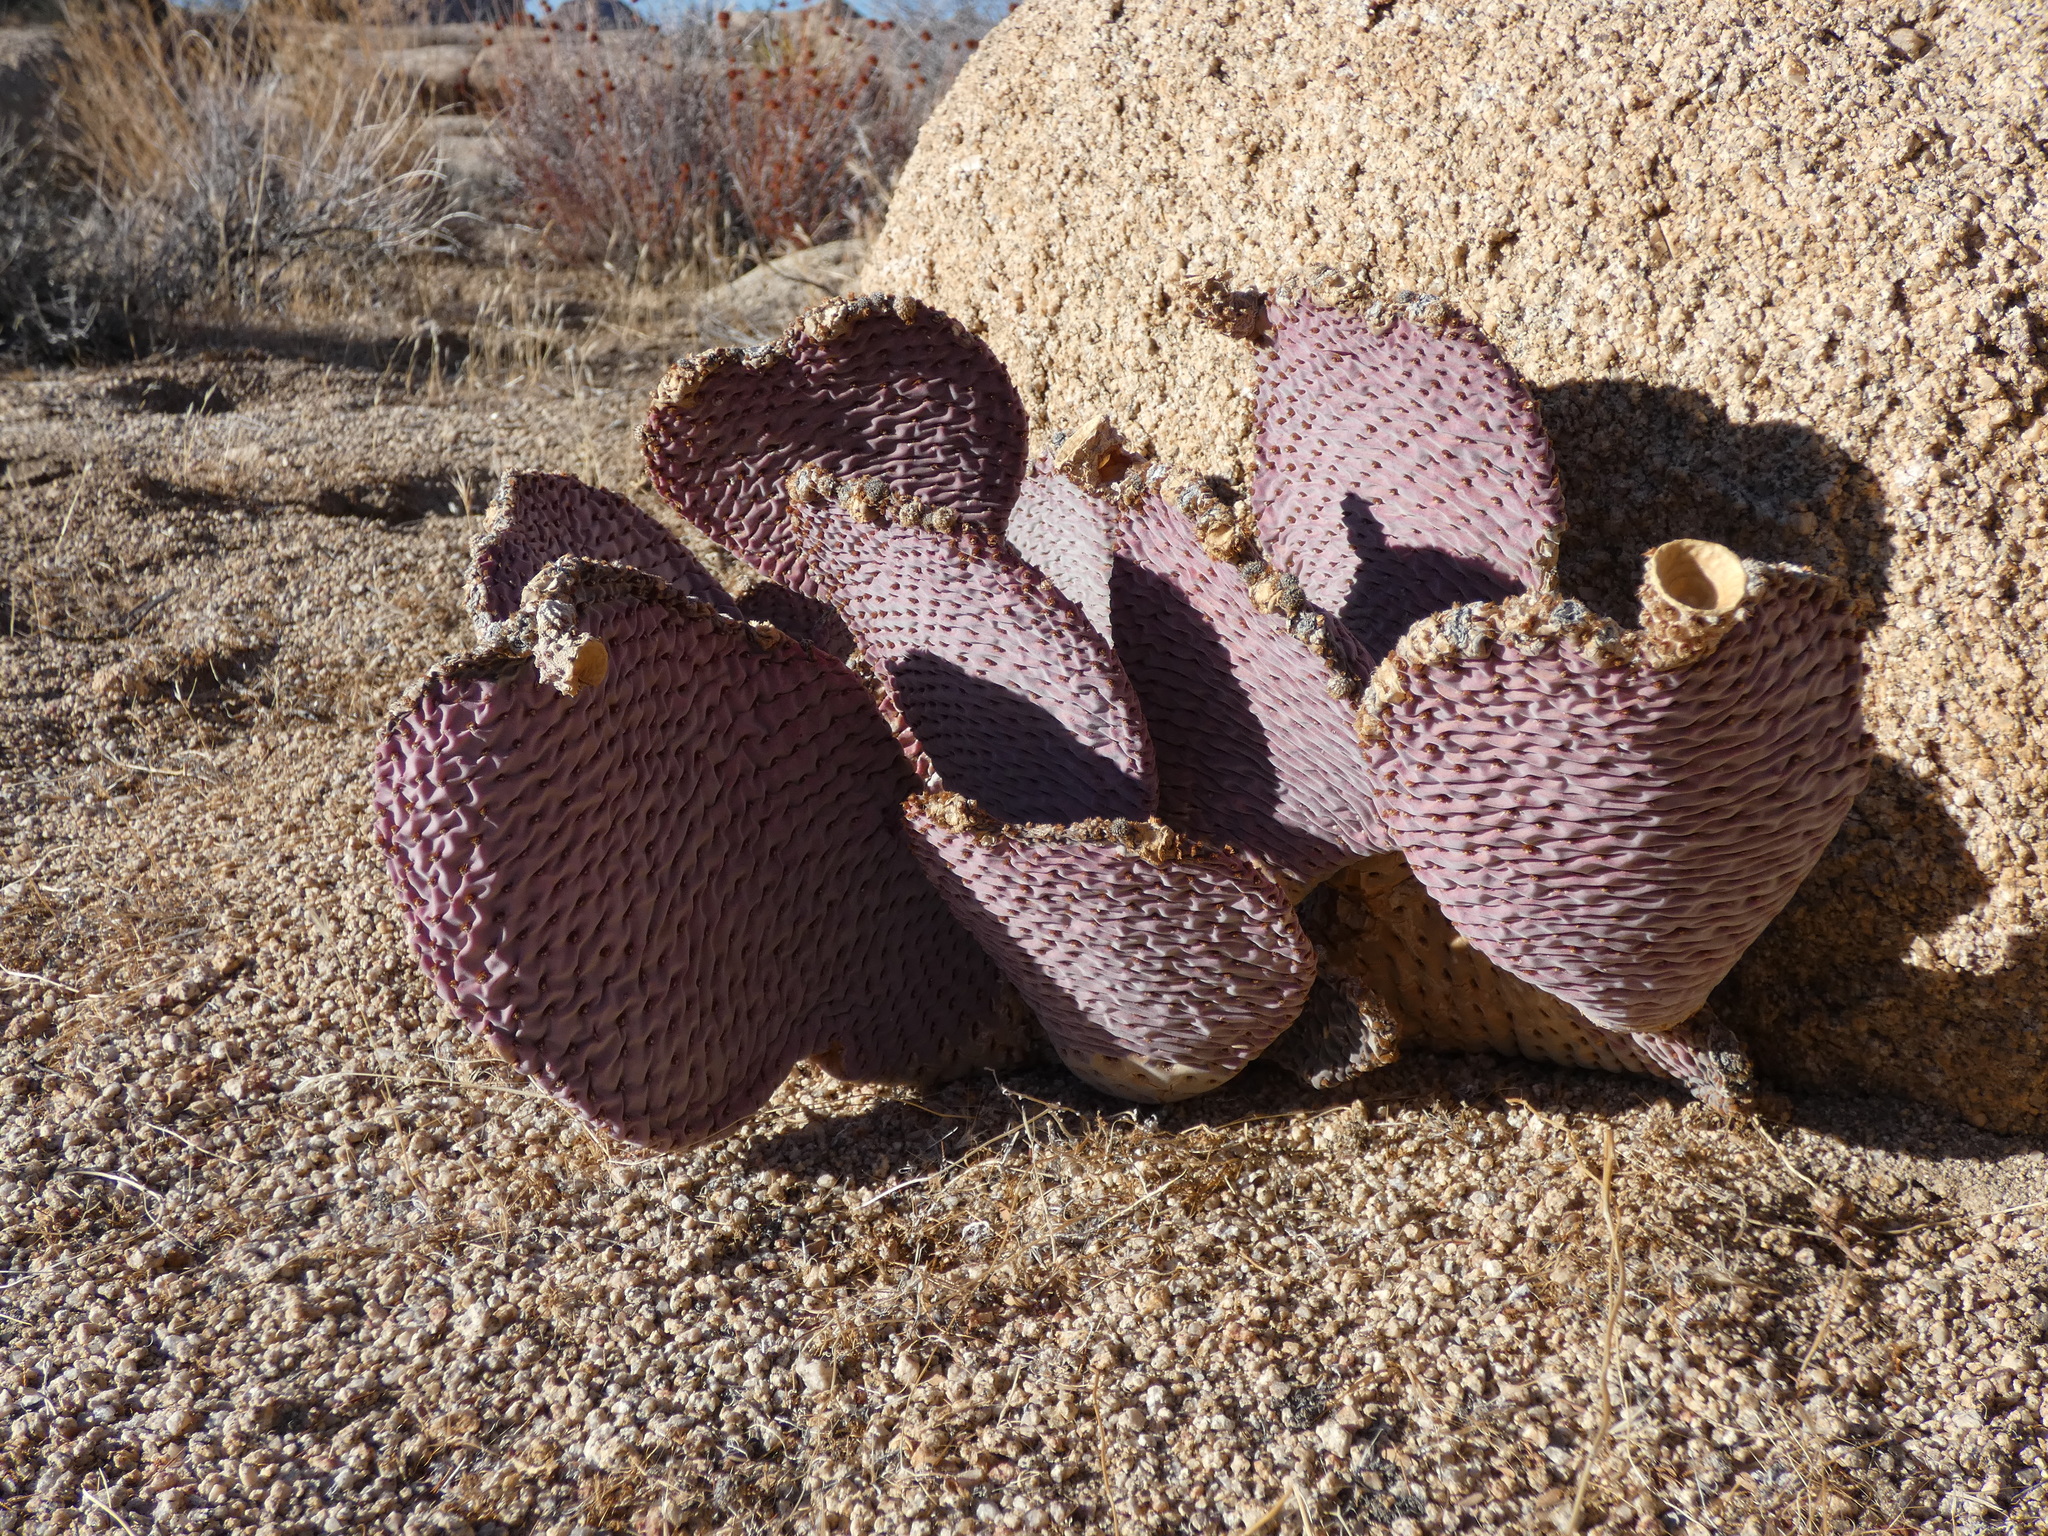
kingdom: Plantae
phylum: Tracheophyta
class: Magnoliopsida
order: Caryophyllales
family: Cactaceae
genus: Opuntia
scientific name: Opuntia basilaris
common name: Beavertail prickly-pear
